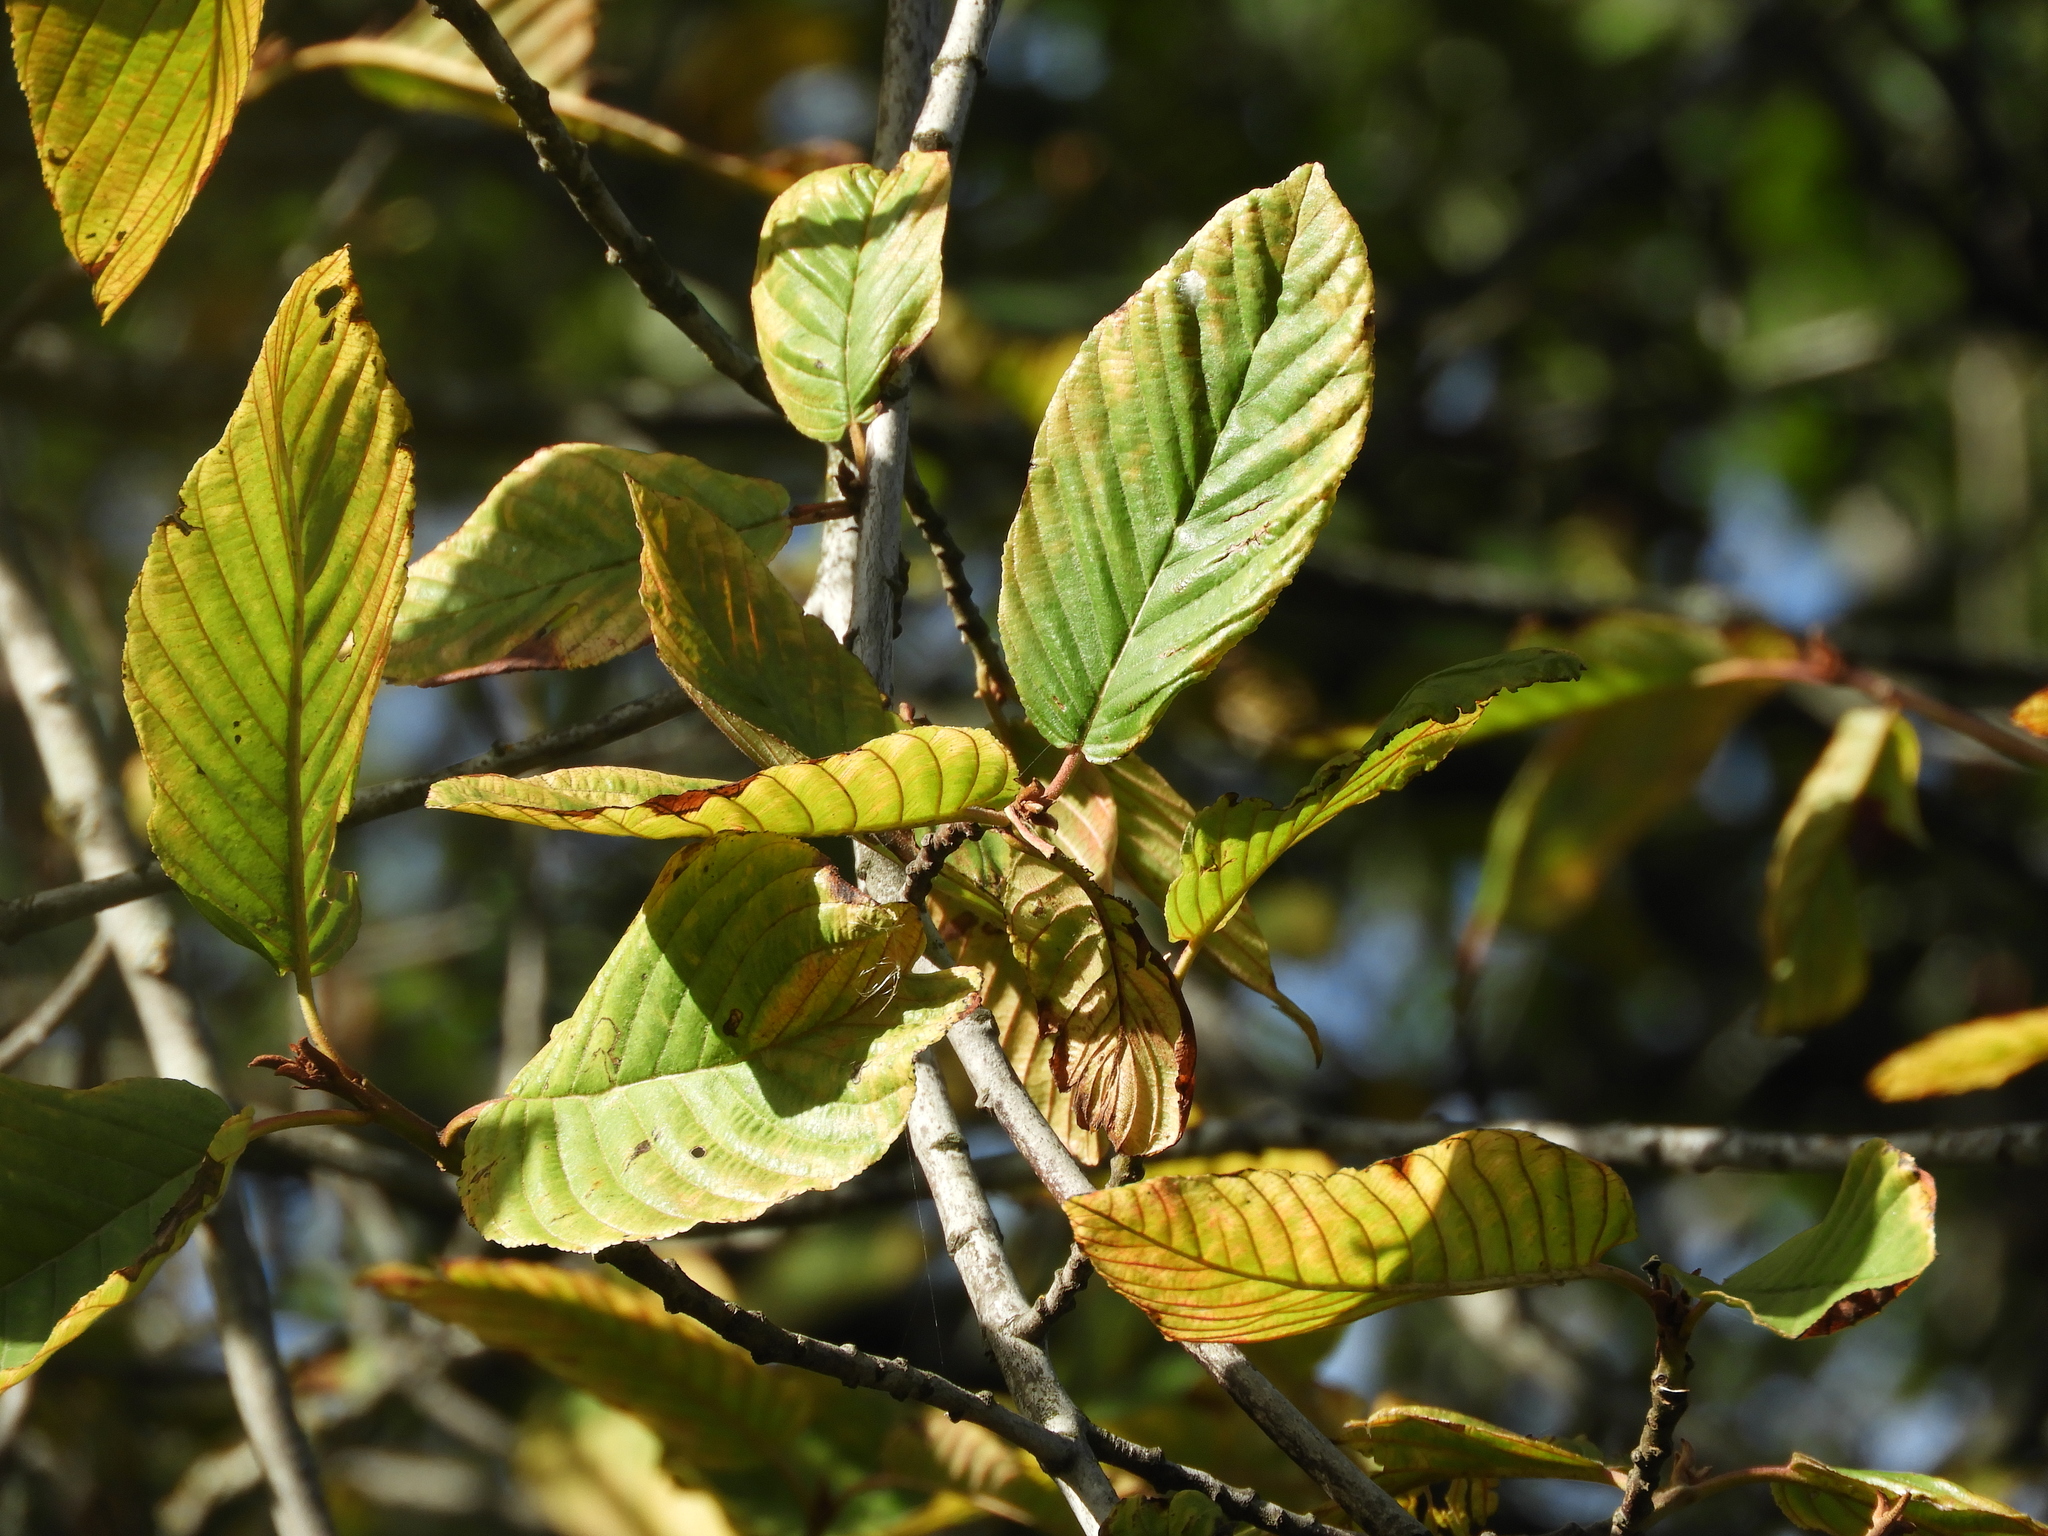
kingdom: Plantae
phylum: Tracheophyta
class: Magnoliopsida
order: Rosales
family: Rhamnaceae
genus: Frangula
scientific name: Frangula purshiana
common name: Cascara buckthorn
